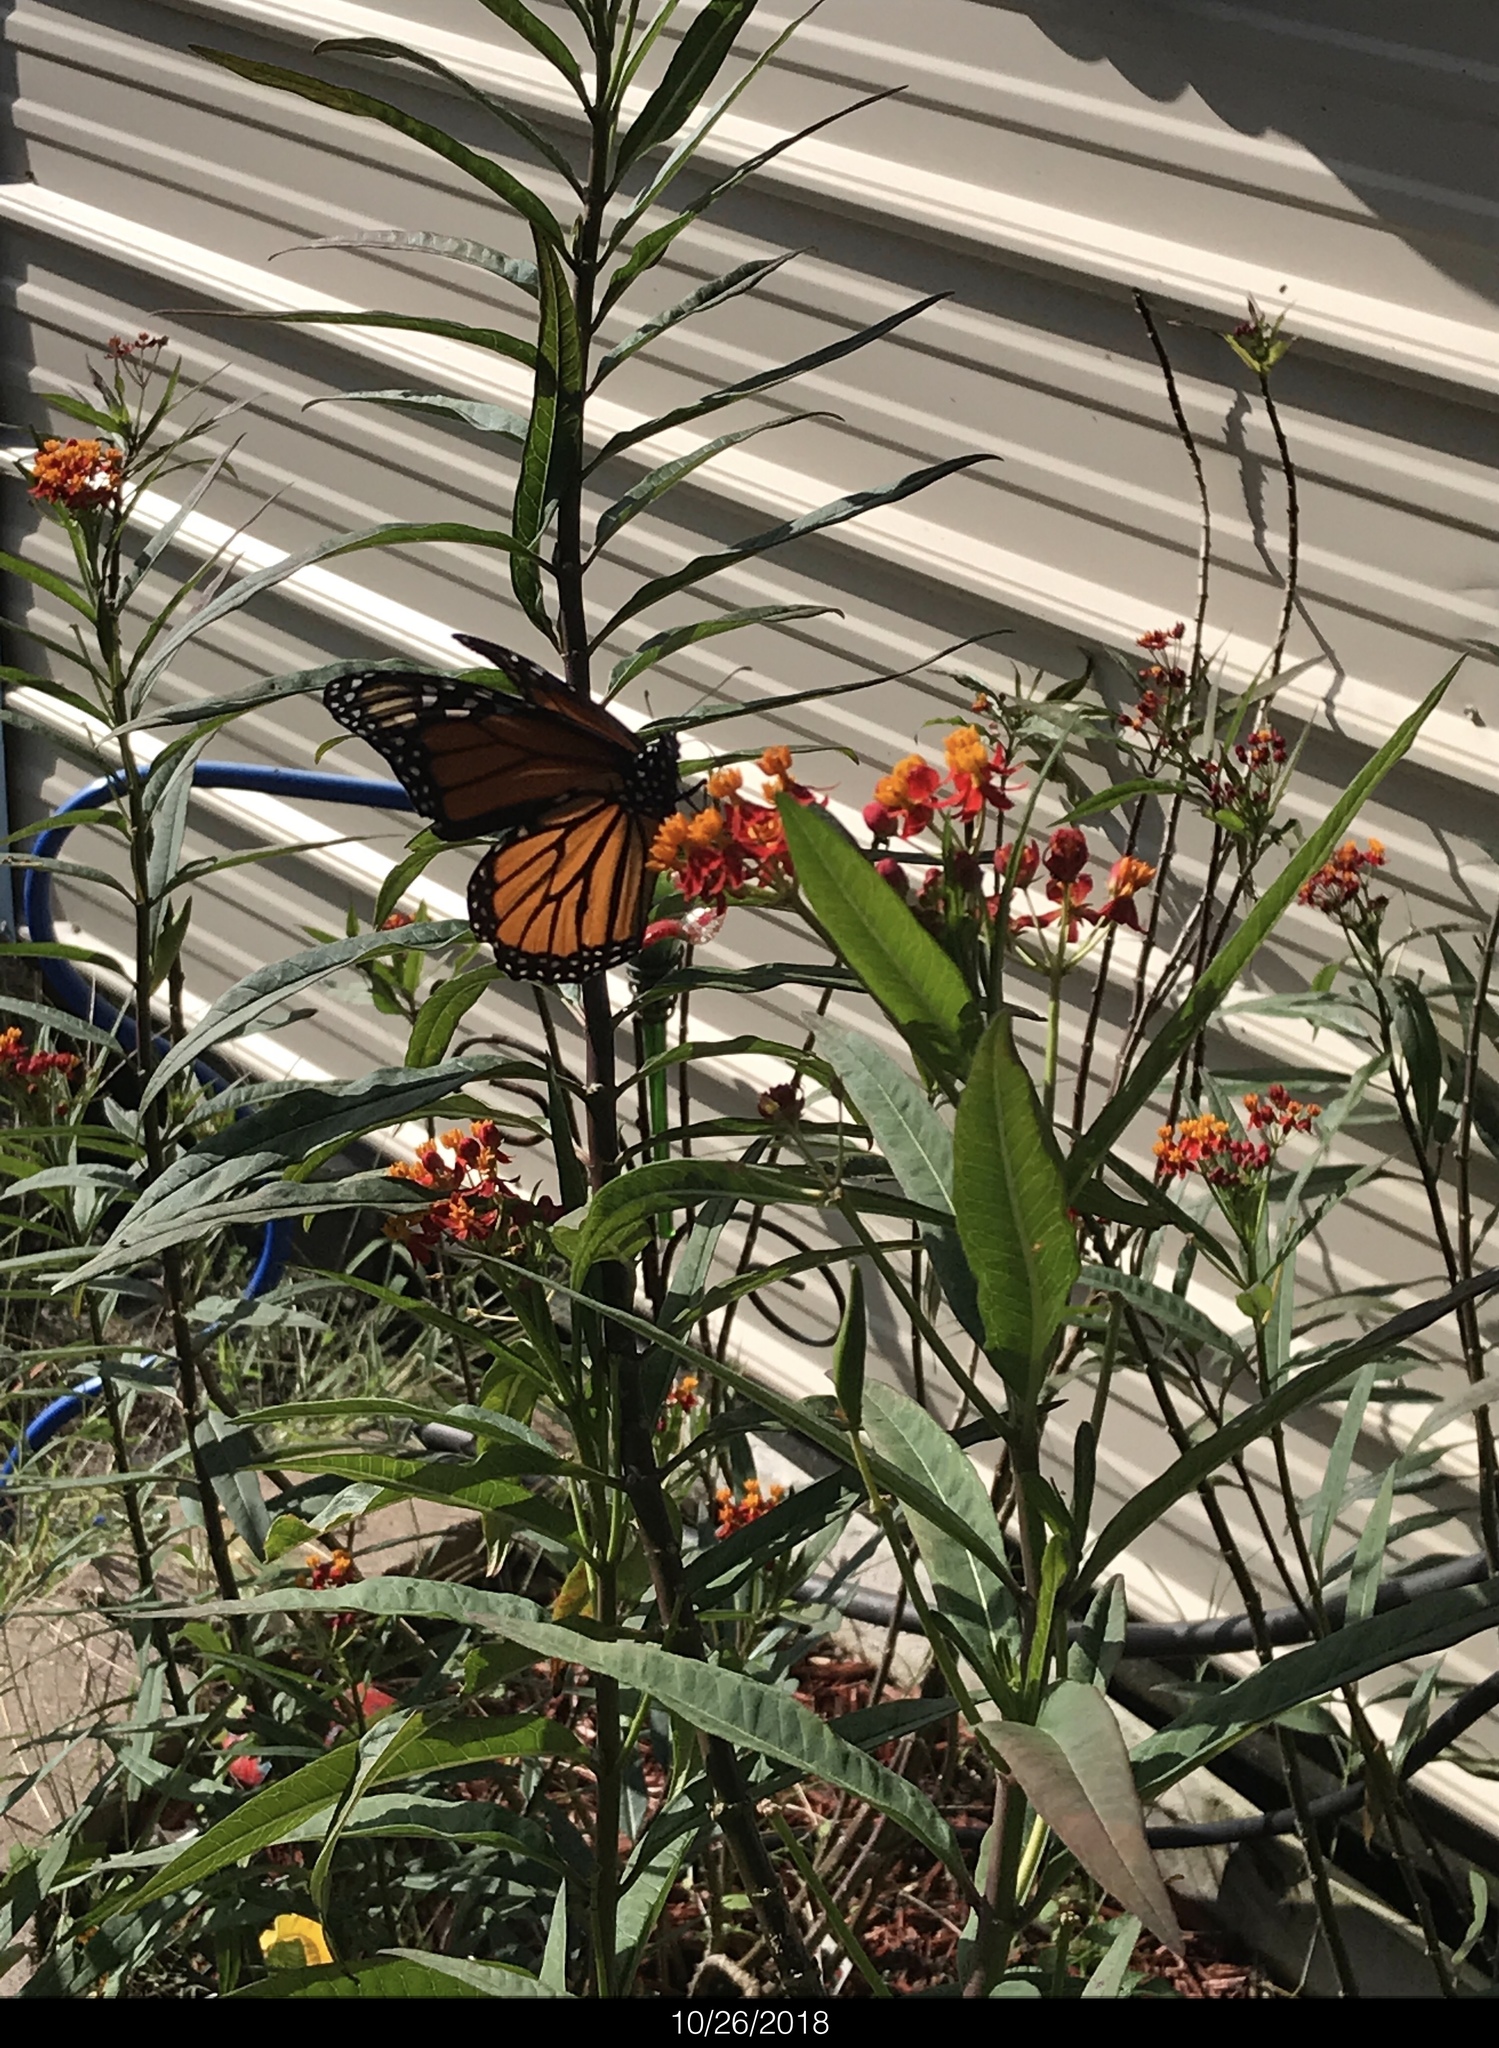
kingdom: Animalia
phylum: Arthropoda
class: Insecta
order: Lepidoptera
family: Nymphalidae
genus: Danaus
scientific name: Danaus plexippus
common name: Monarch
